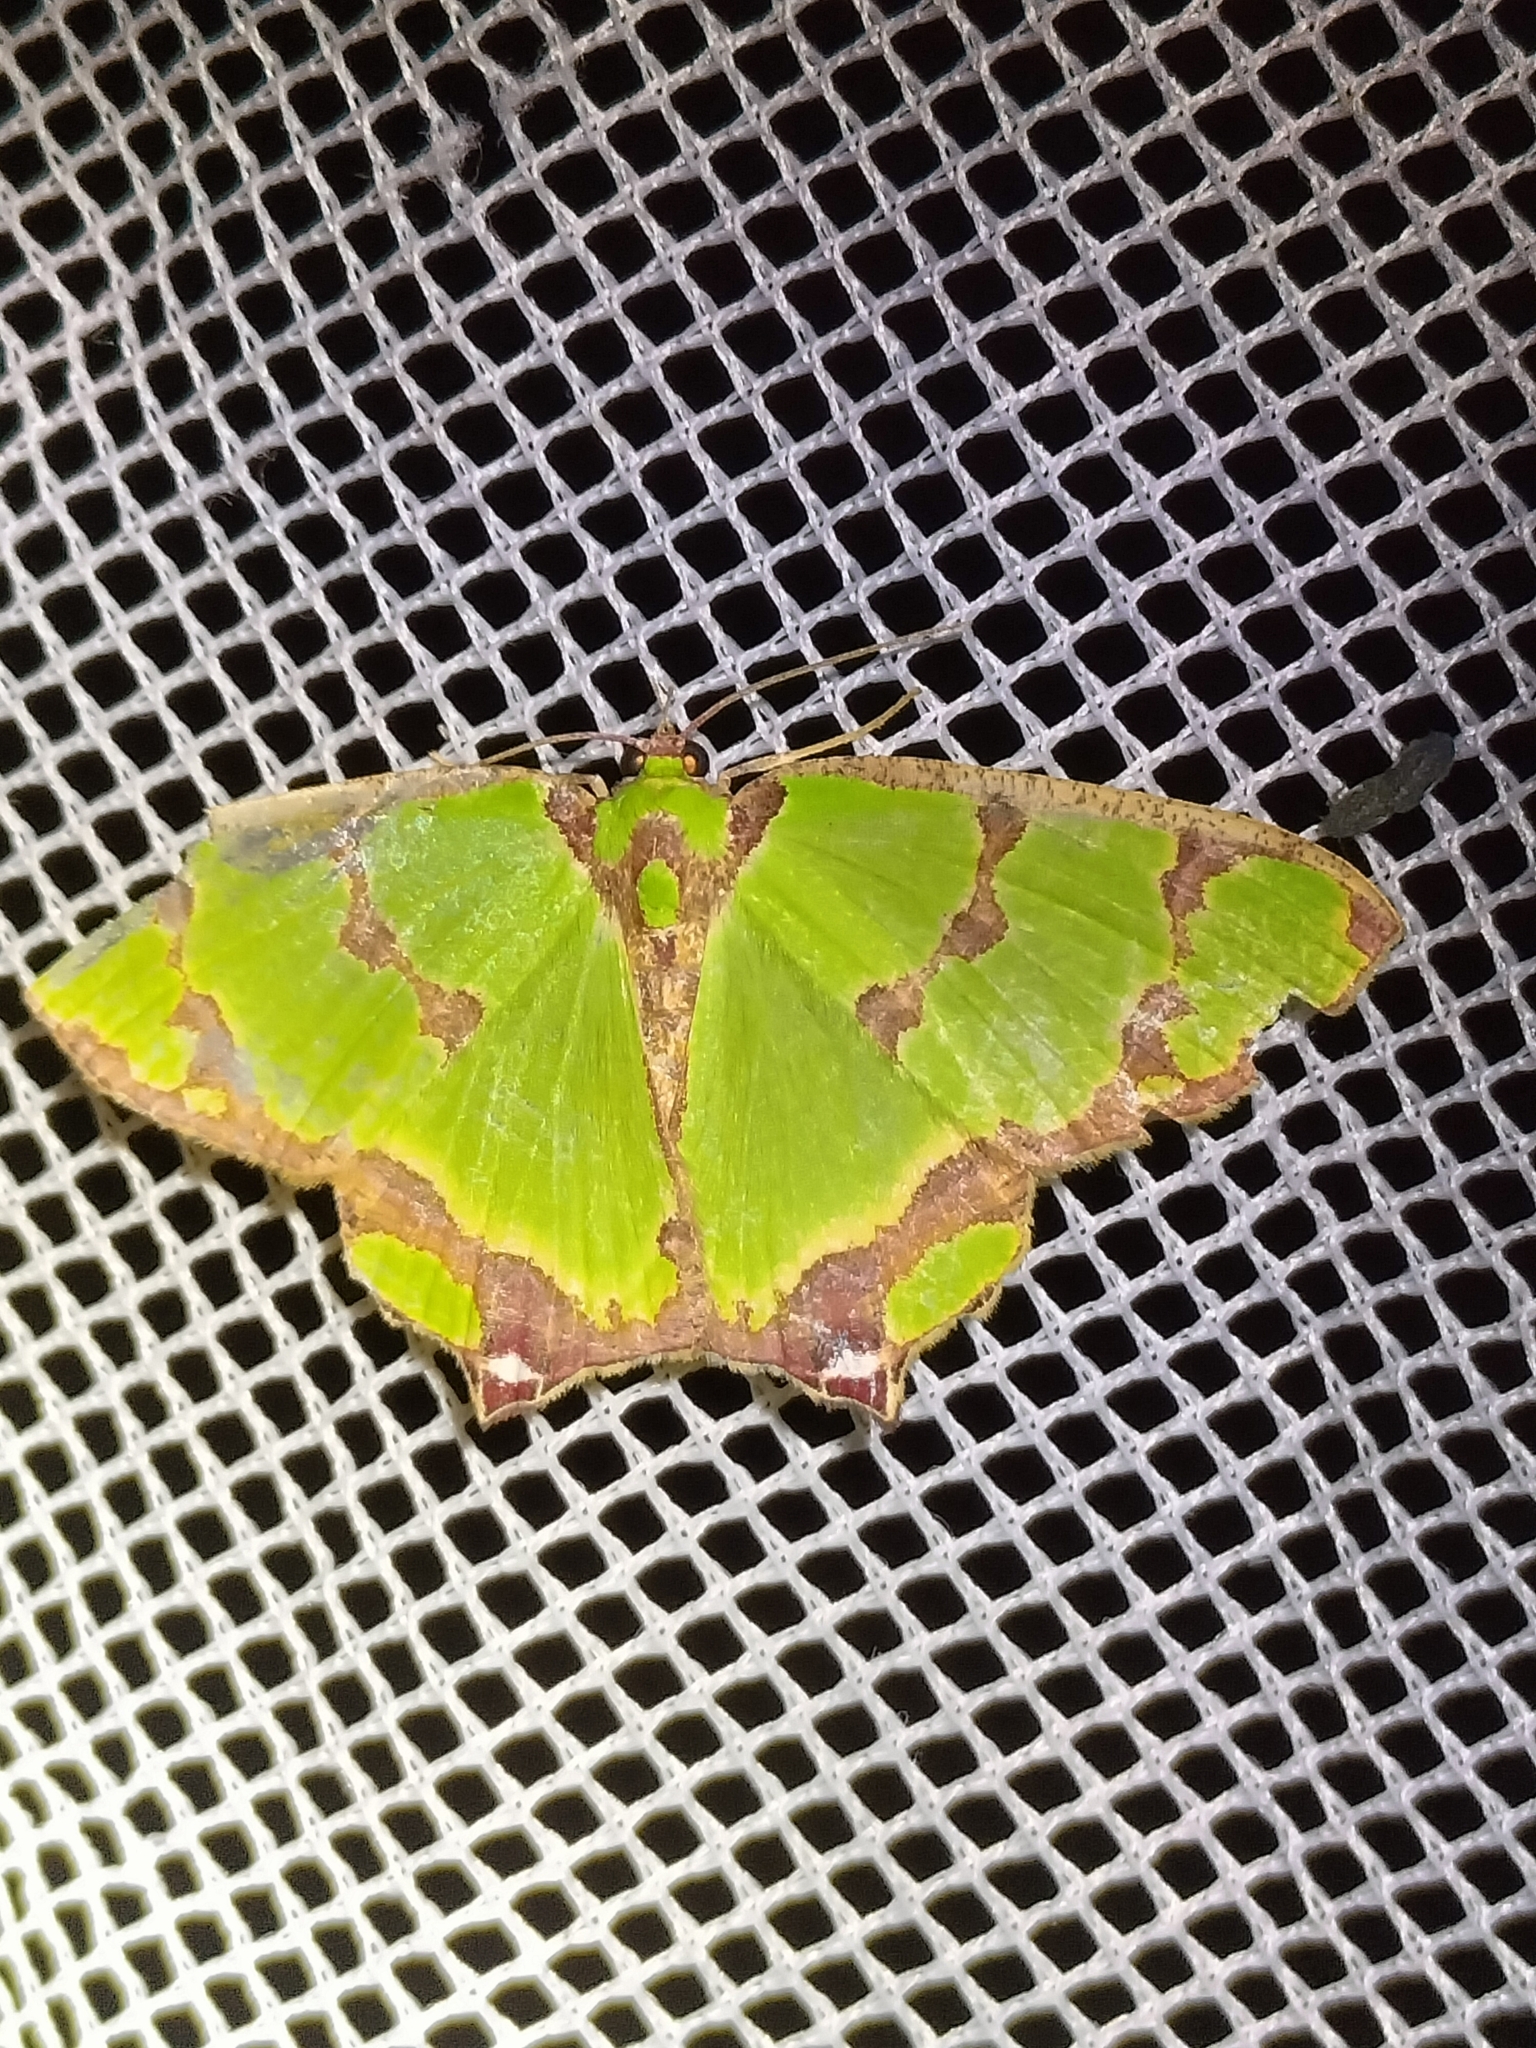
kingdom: Animalia
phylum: Arthropoda
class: Insecta
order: Lepidoptera
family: Geometridae
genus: Agathia
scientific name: Agathia prasinaspis
